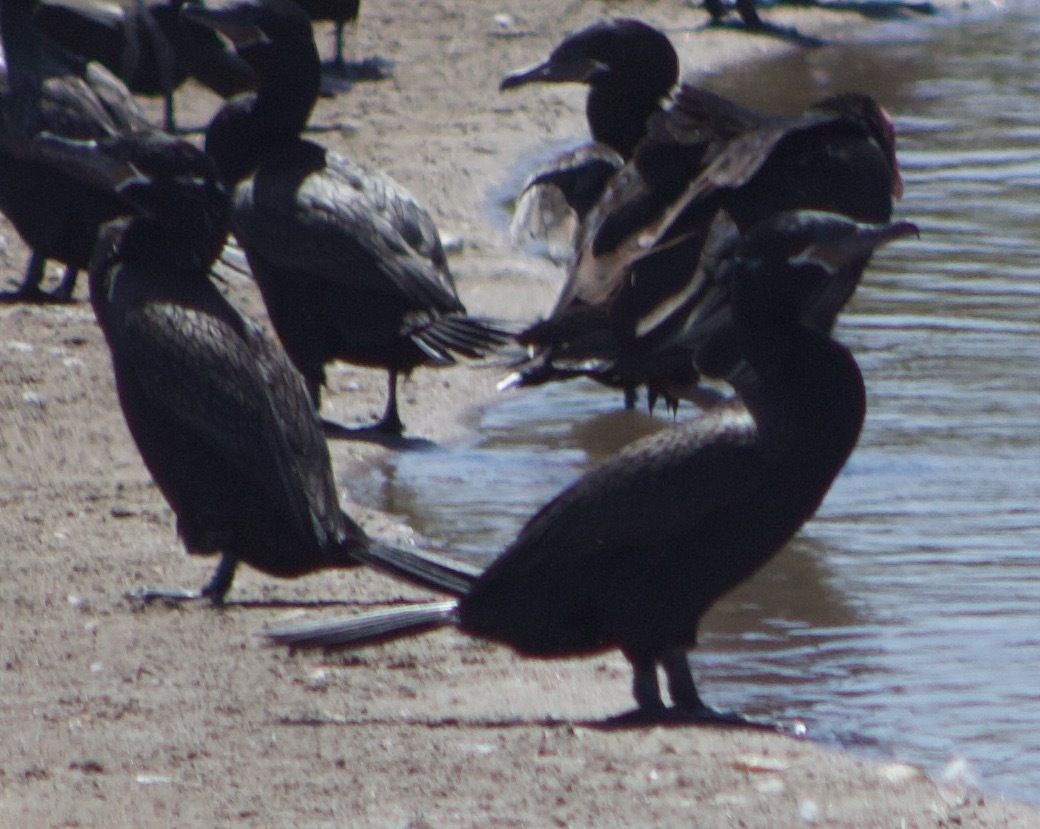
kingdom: Animalia
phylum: Chordata
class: Aves
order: Suliformes
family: Phalacrocoracidae
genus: Phalacrocorax
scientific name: Phalacrocorax brasilianus
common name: Neotropic cormorant
